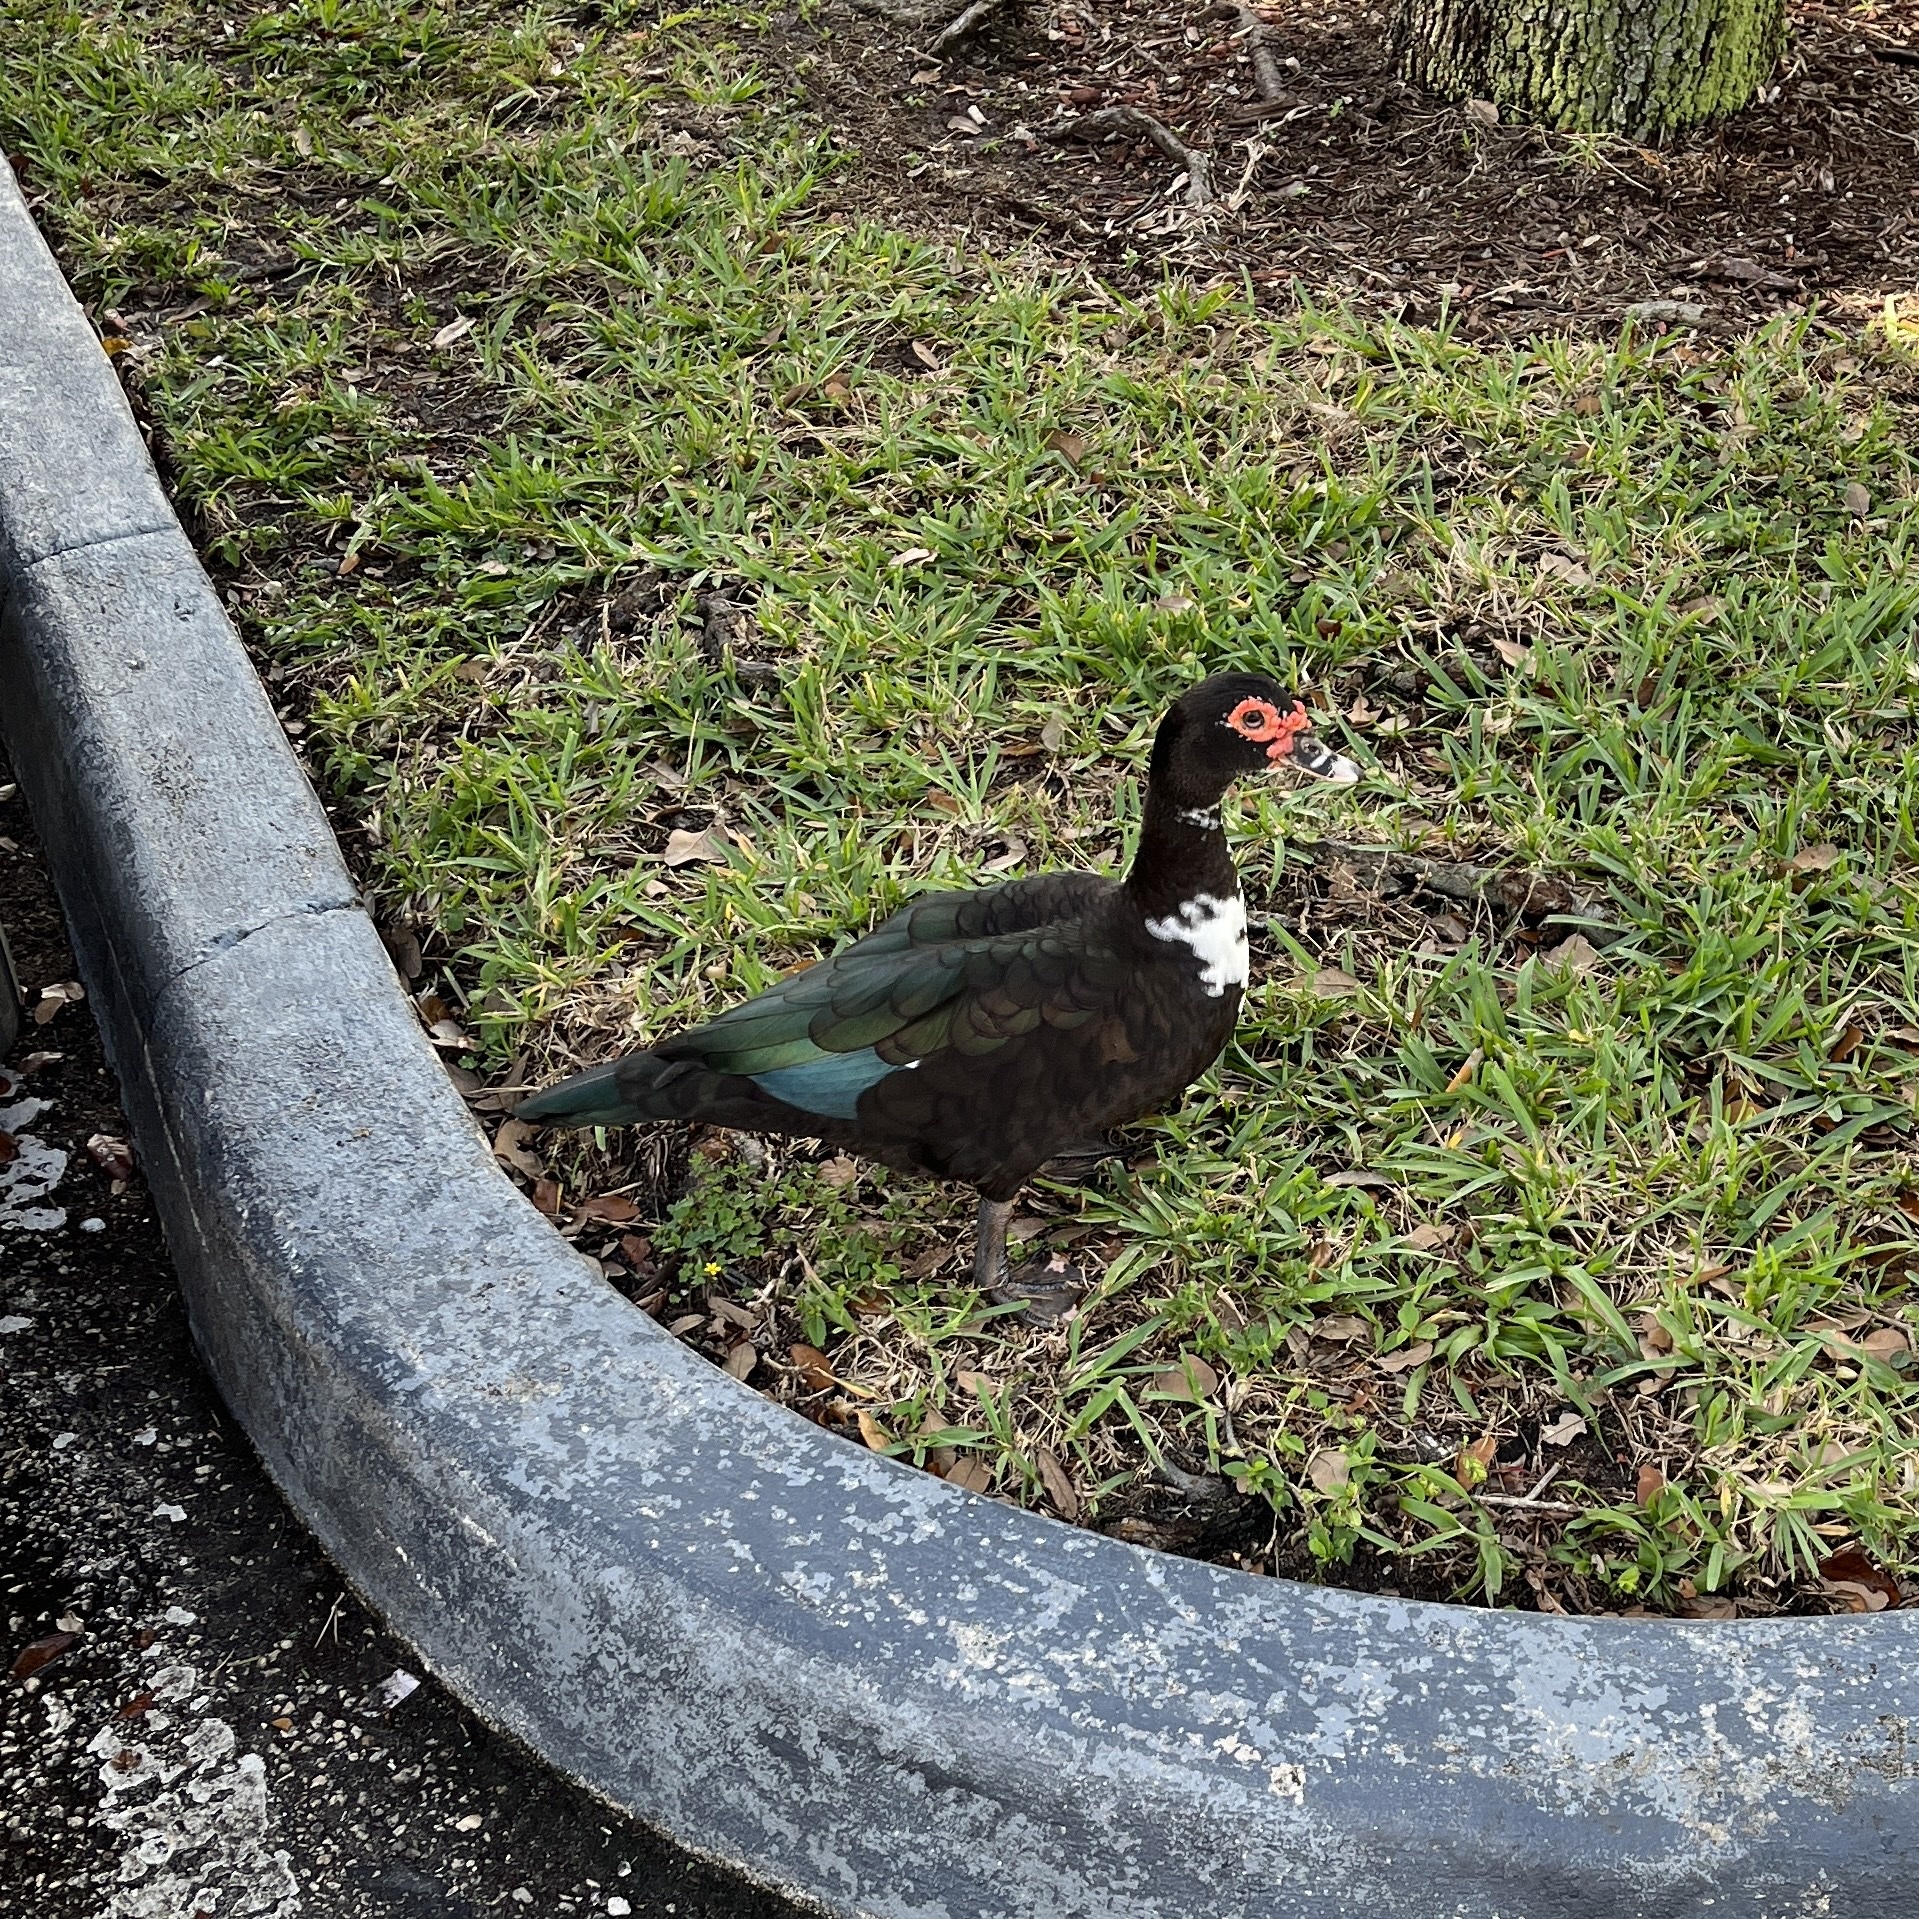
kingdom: Animalia
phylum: Chordata
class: Aves
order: Anseriformes
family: Anatidae
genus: Cairina
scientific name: Cairina moschata
